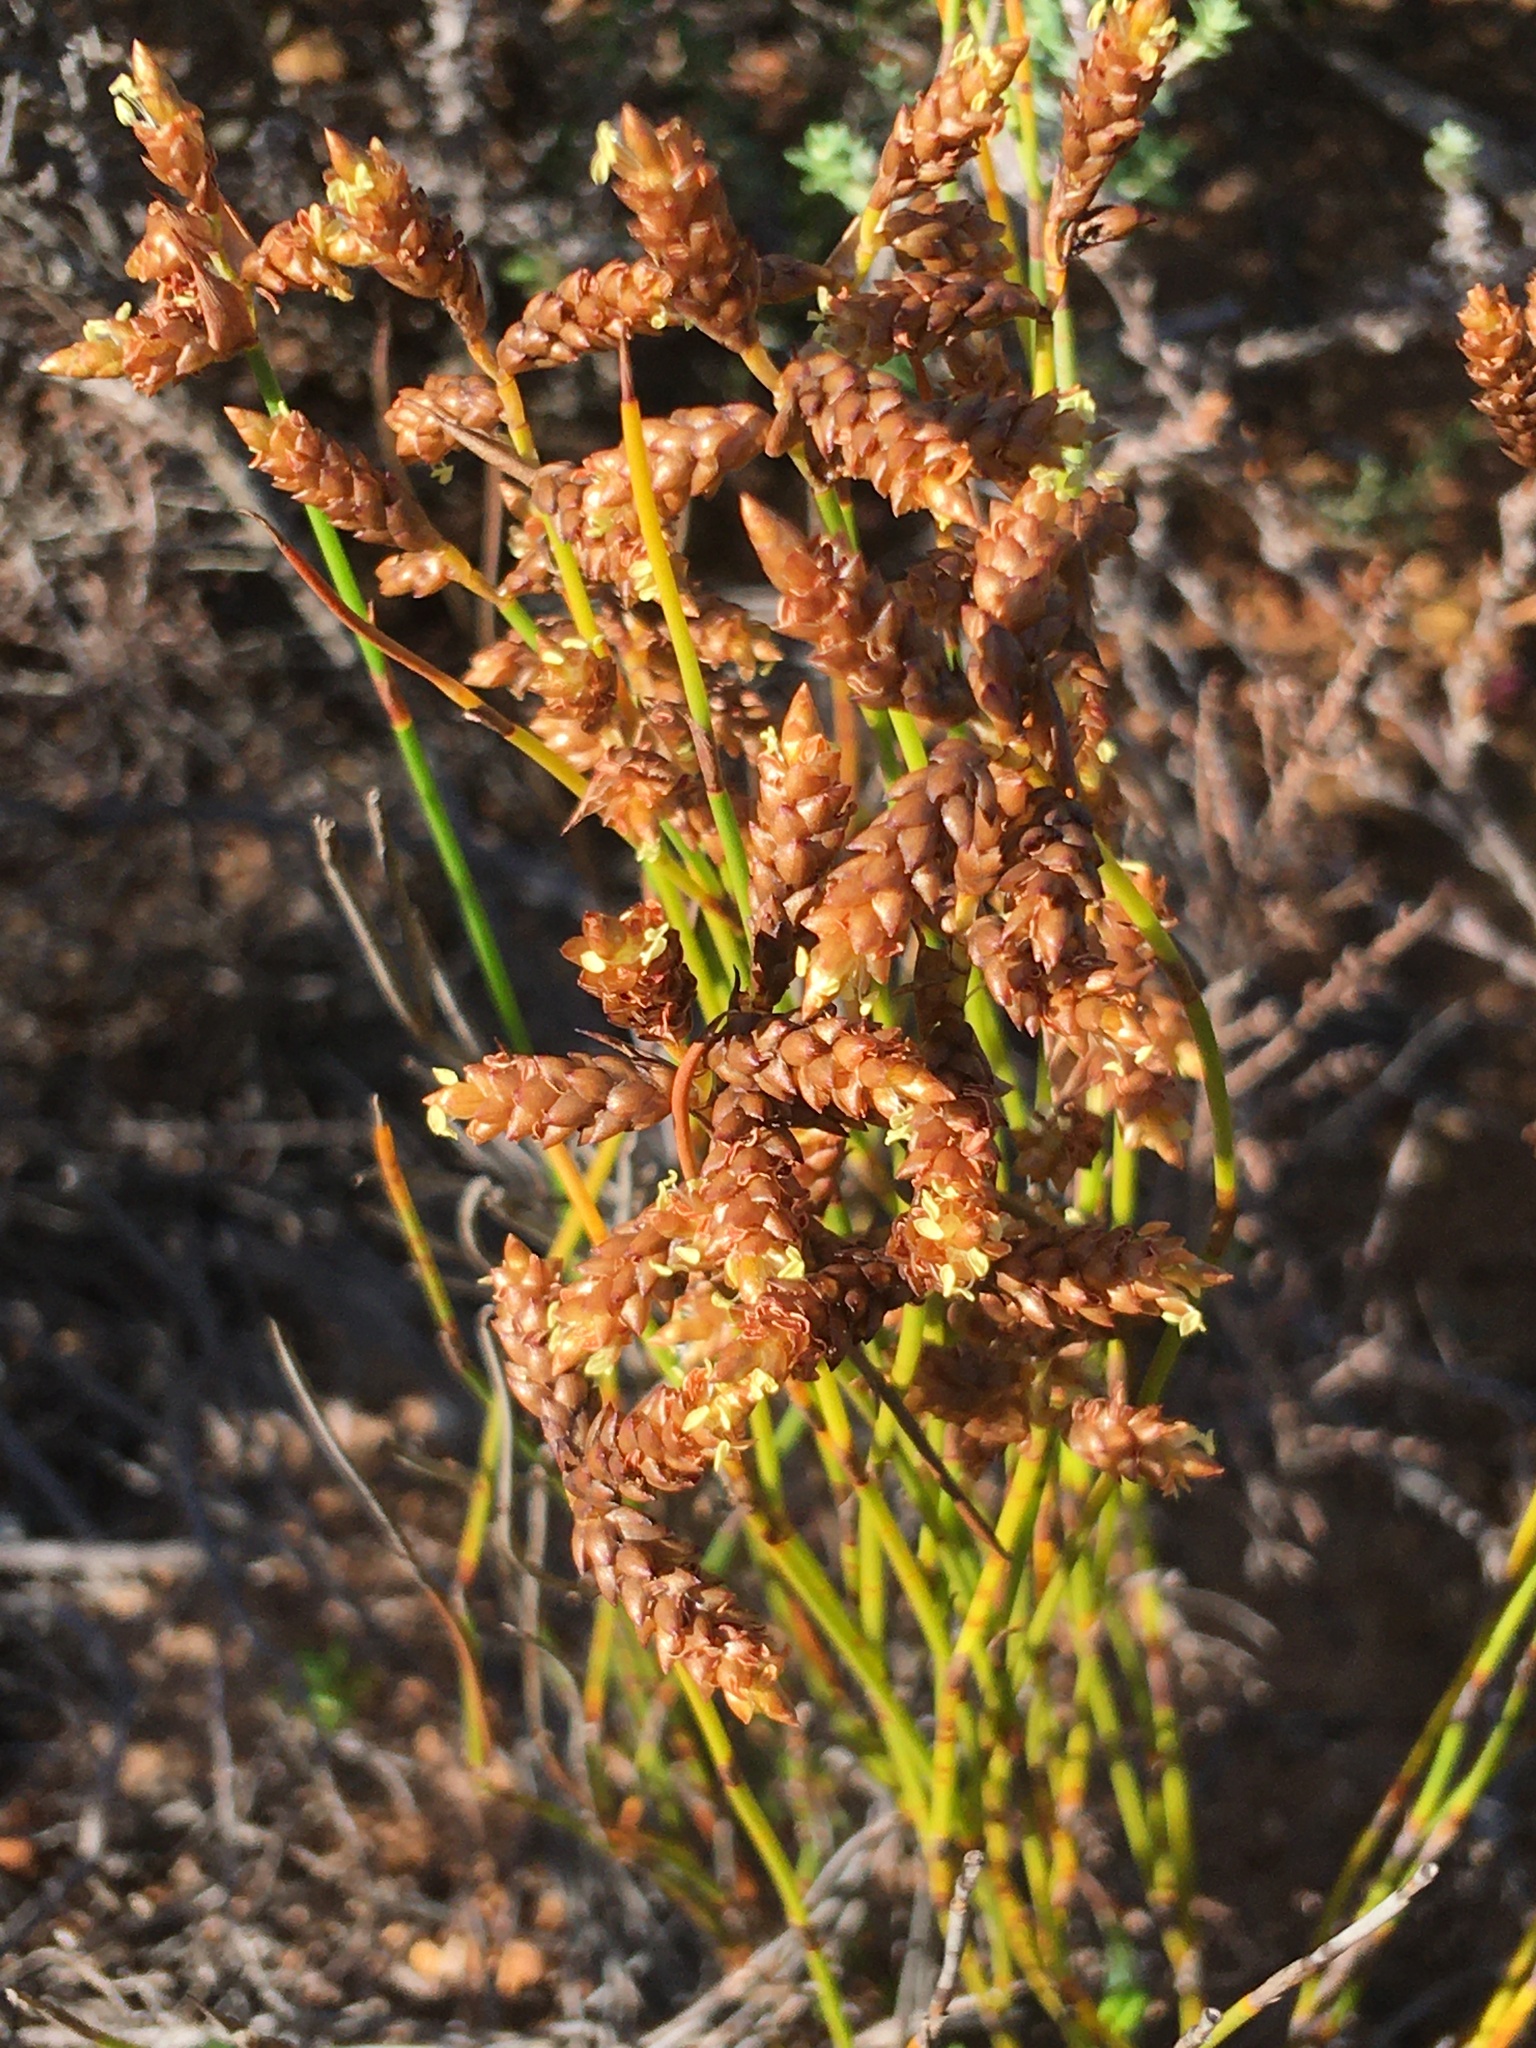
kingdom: Plantae
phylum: Tracheophyta
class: Liliopsida
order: Poales
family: Restionaceae
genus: Mastersiella
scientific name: Mastersiella digitata
